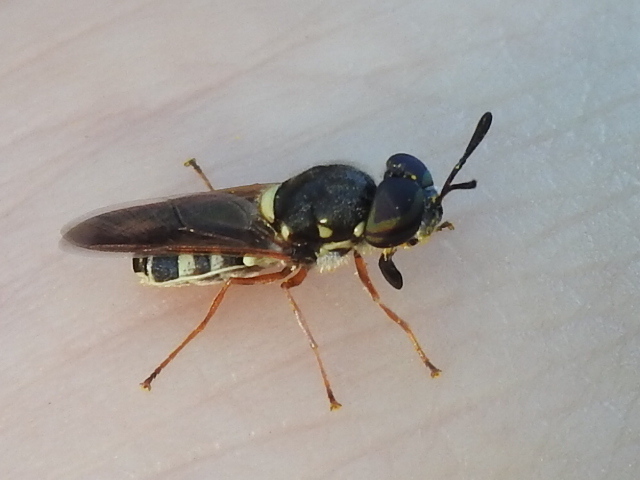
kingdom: Animalia
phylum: Arthropoda
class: Insecta
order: Diptera
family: Stratiomyidae
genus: Hoplitimyia
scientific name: Hoplitimyia constans
